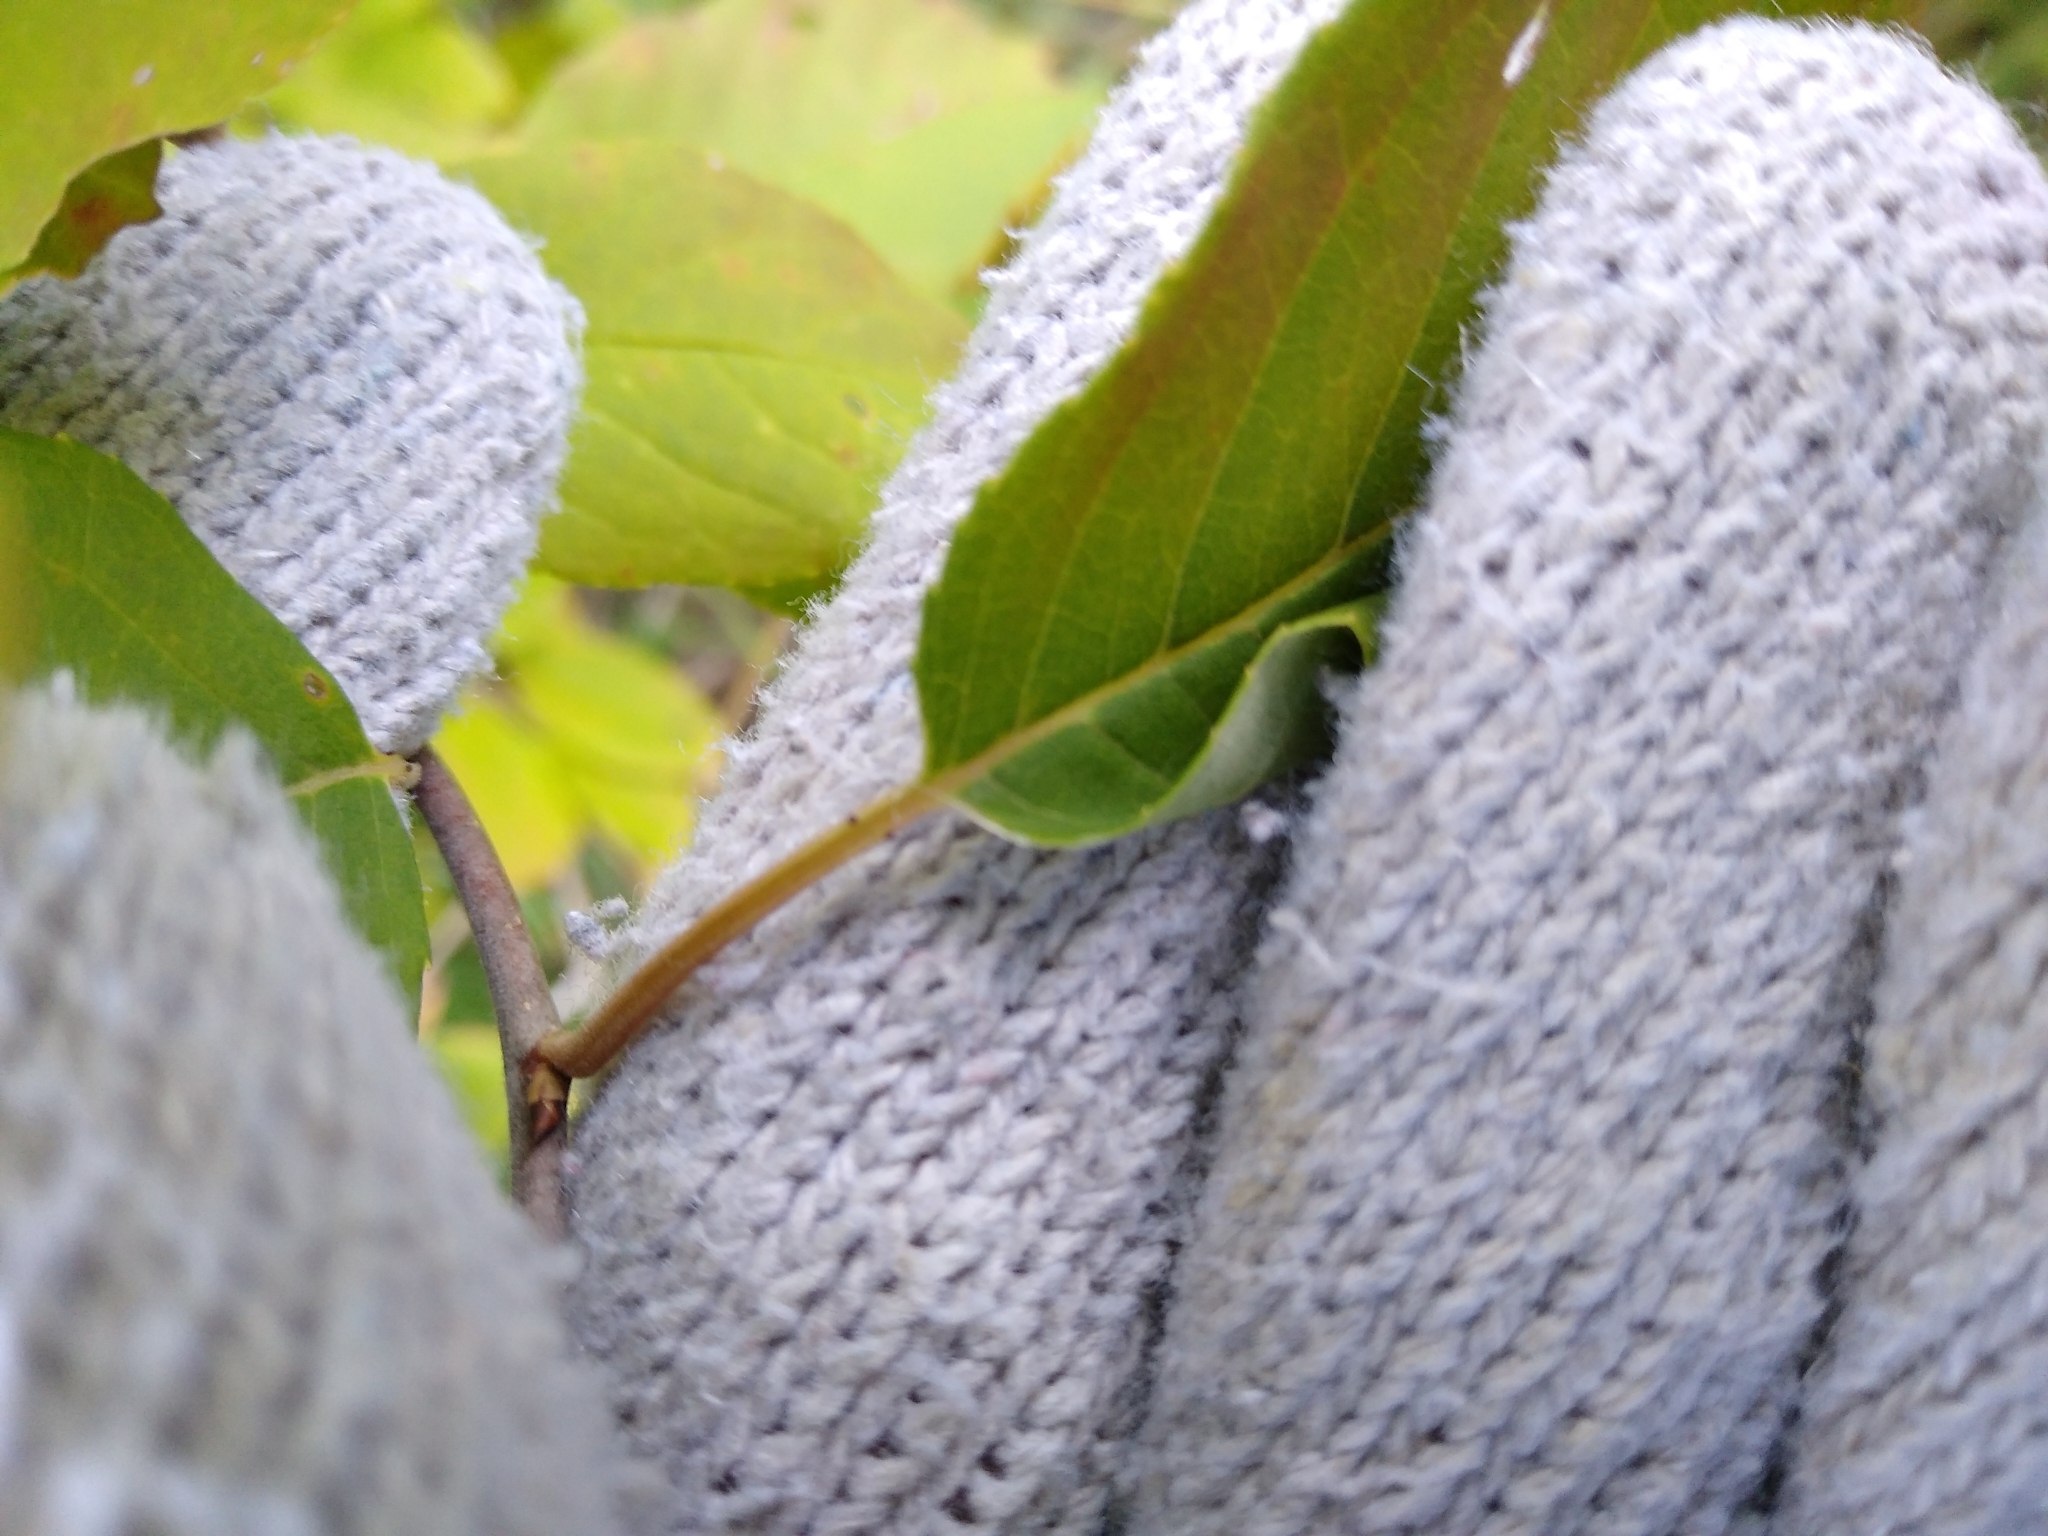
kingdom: Plantae
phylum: Tracheophyta
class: Magnoliopsida
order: Rosales
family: Rosaceae
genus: Prunus
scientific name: Prunus virginiana
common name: Chokecherry
